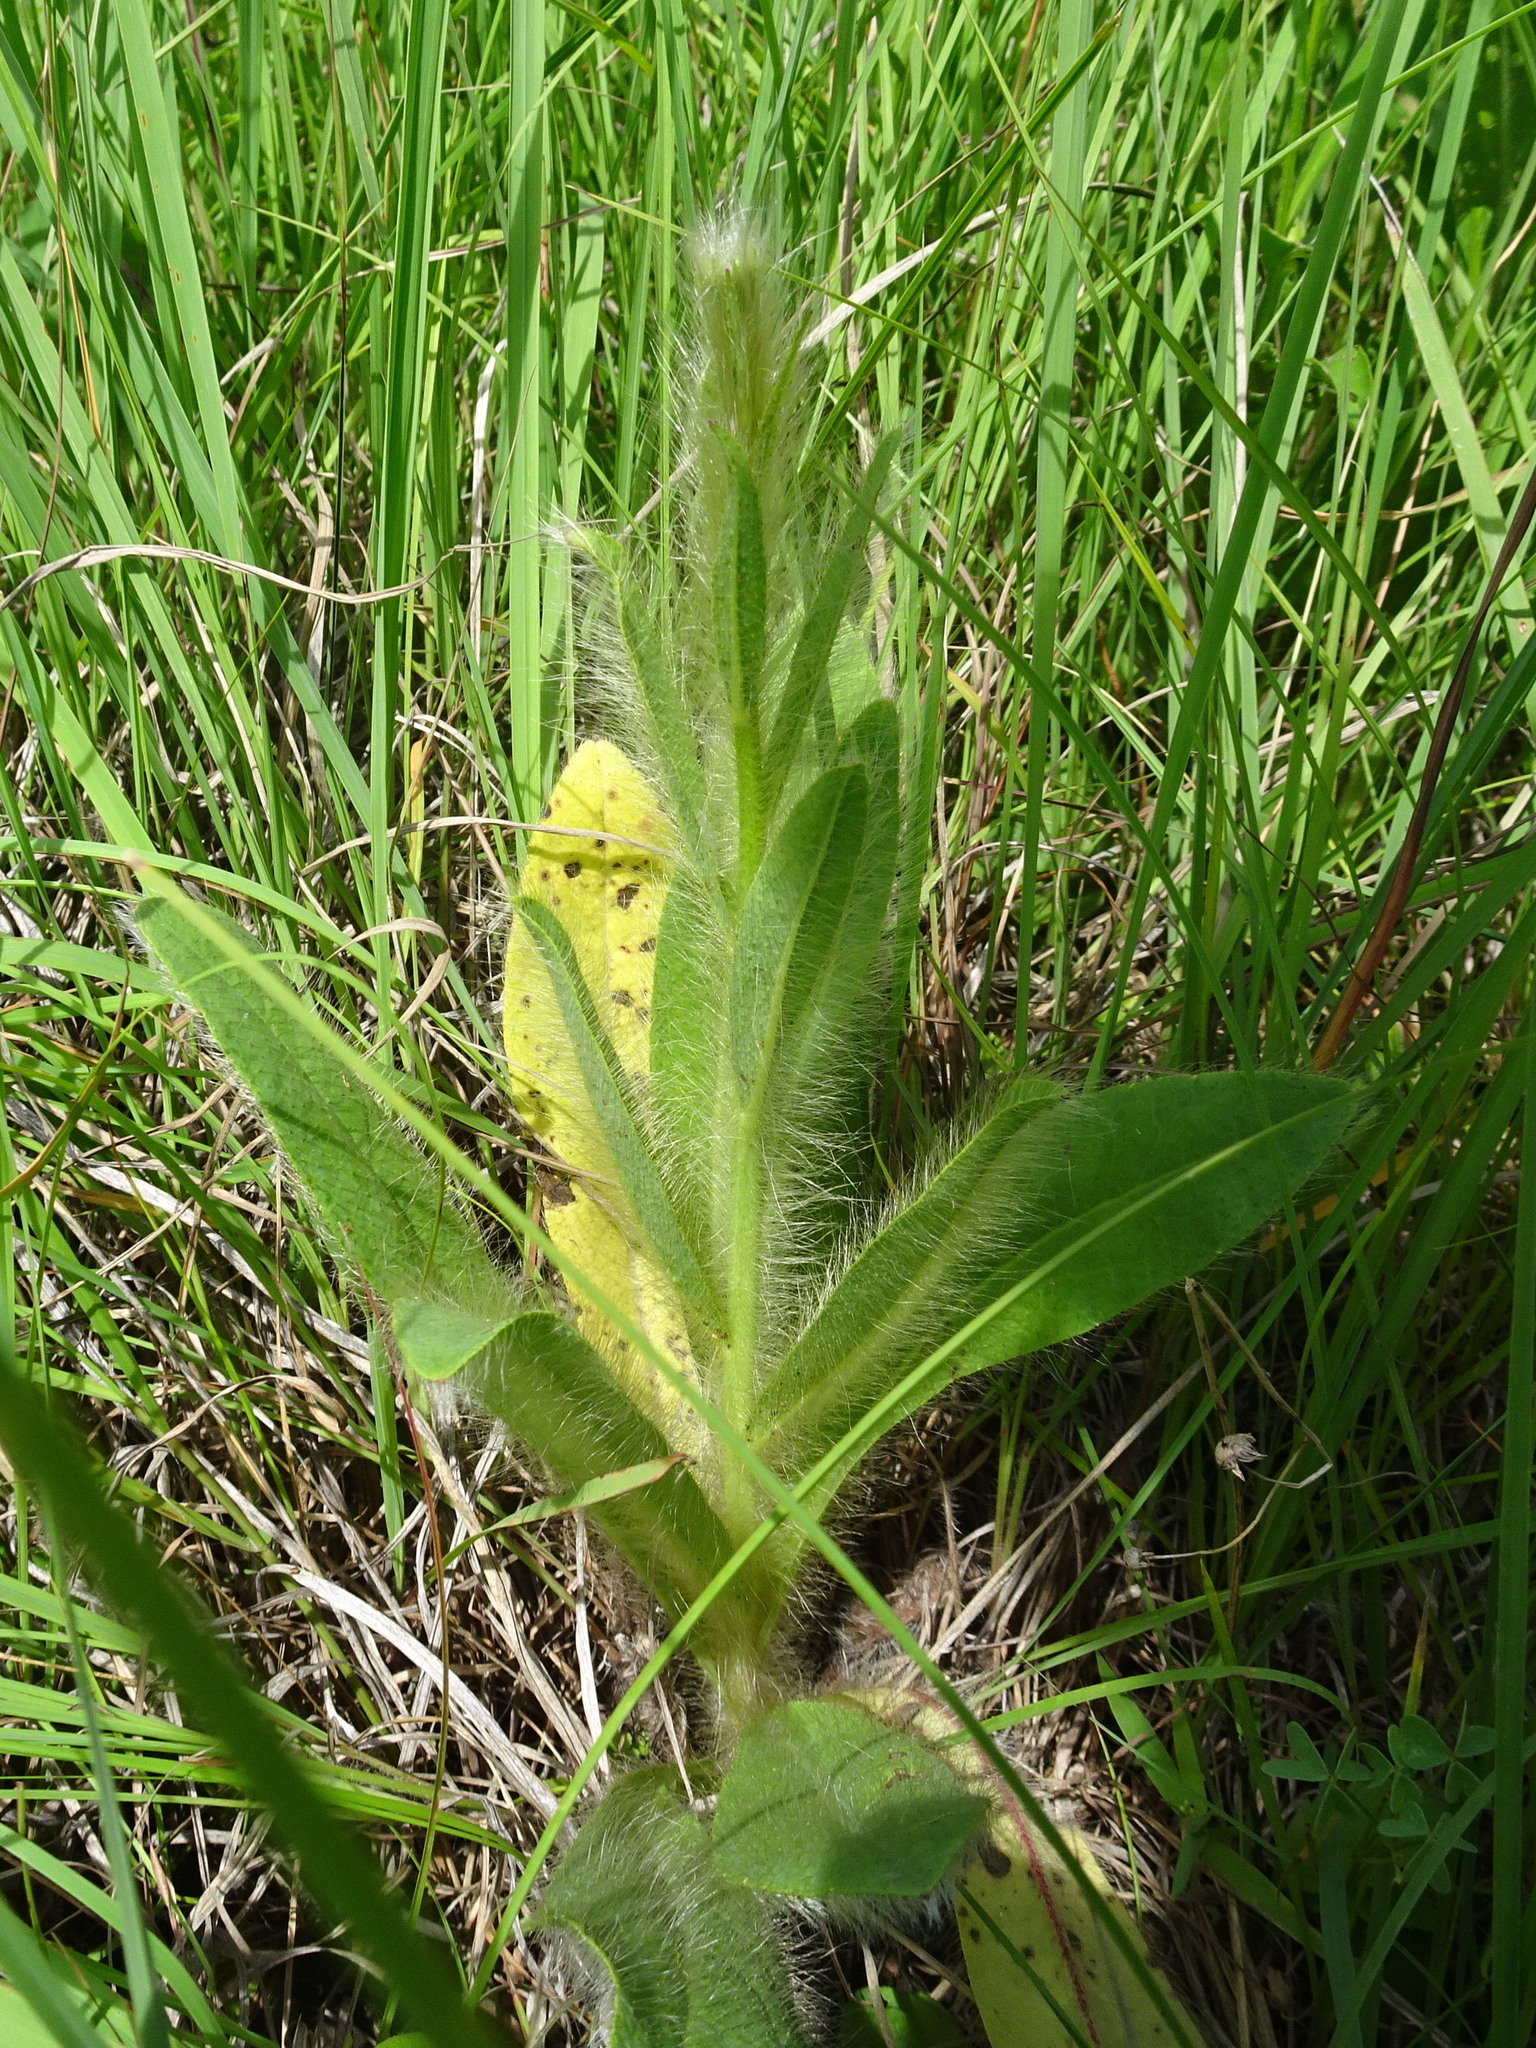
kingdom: Plantae
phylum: Tracheophyta
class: Magnoliopsida
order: Asterales
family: Asteraceae
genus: Hieracium
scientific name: Hieracium longipilum
